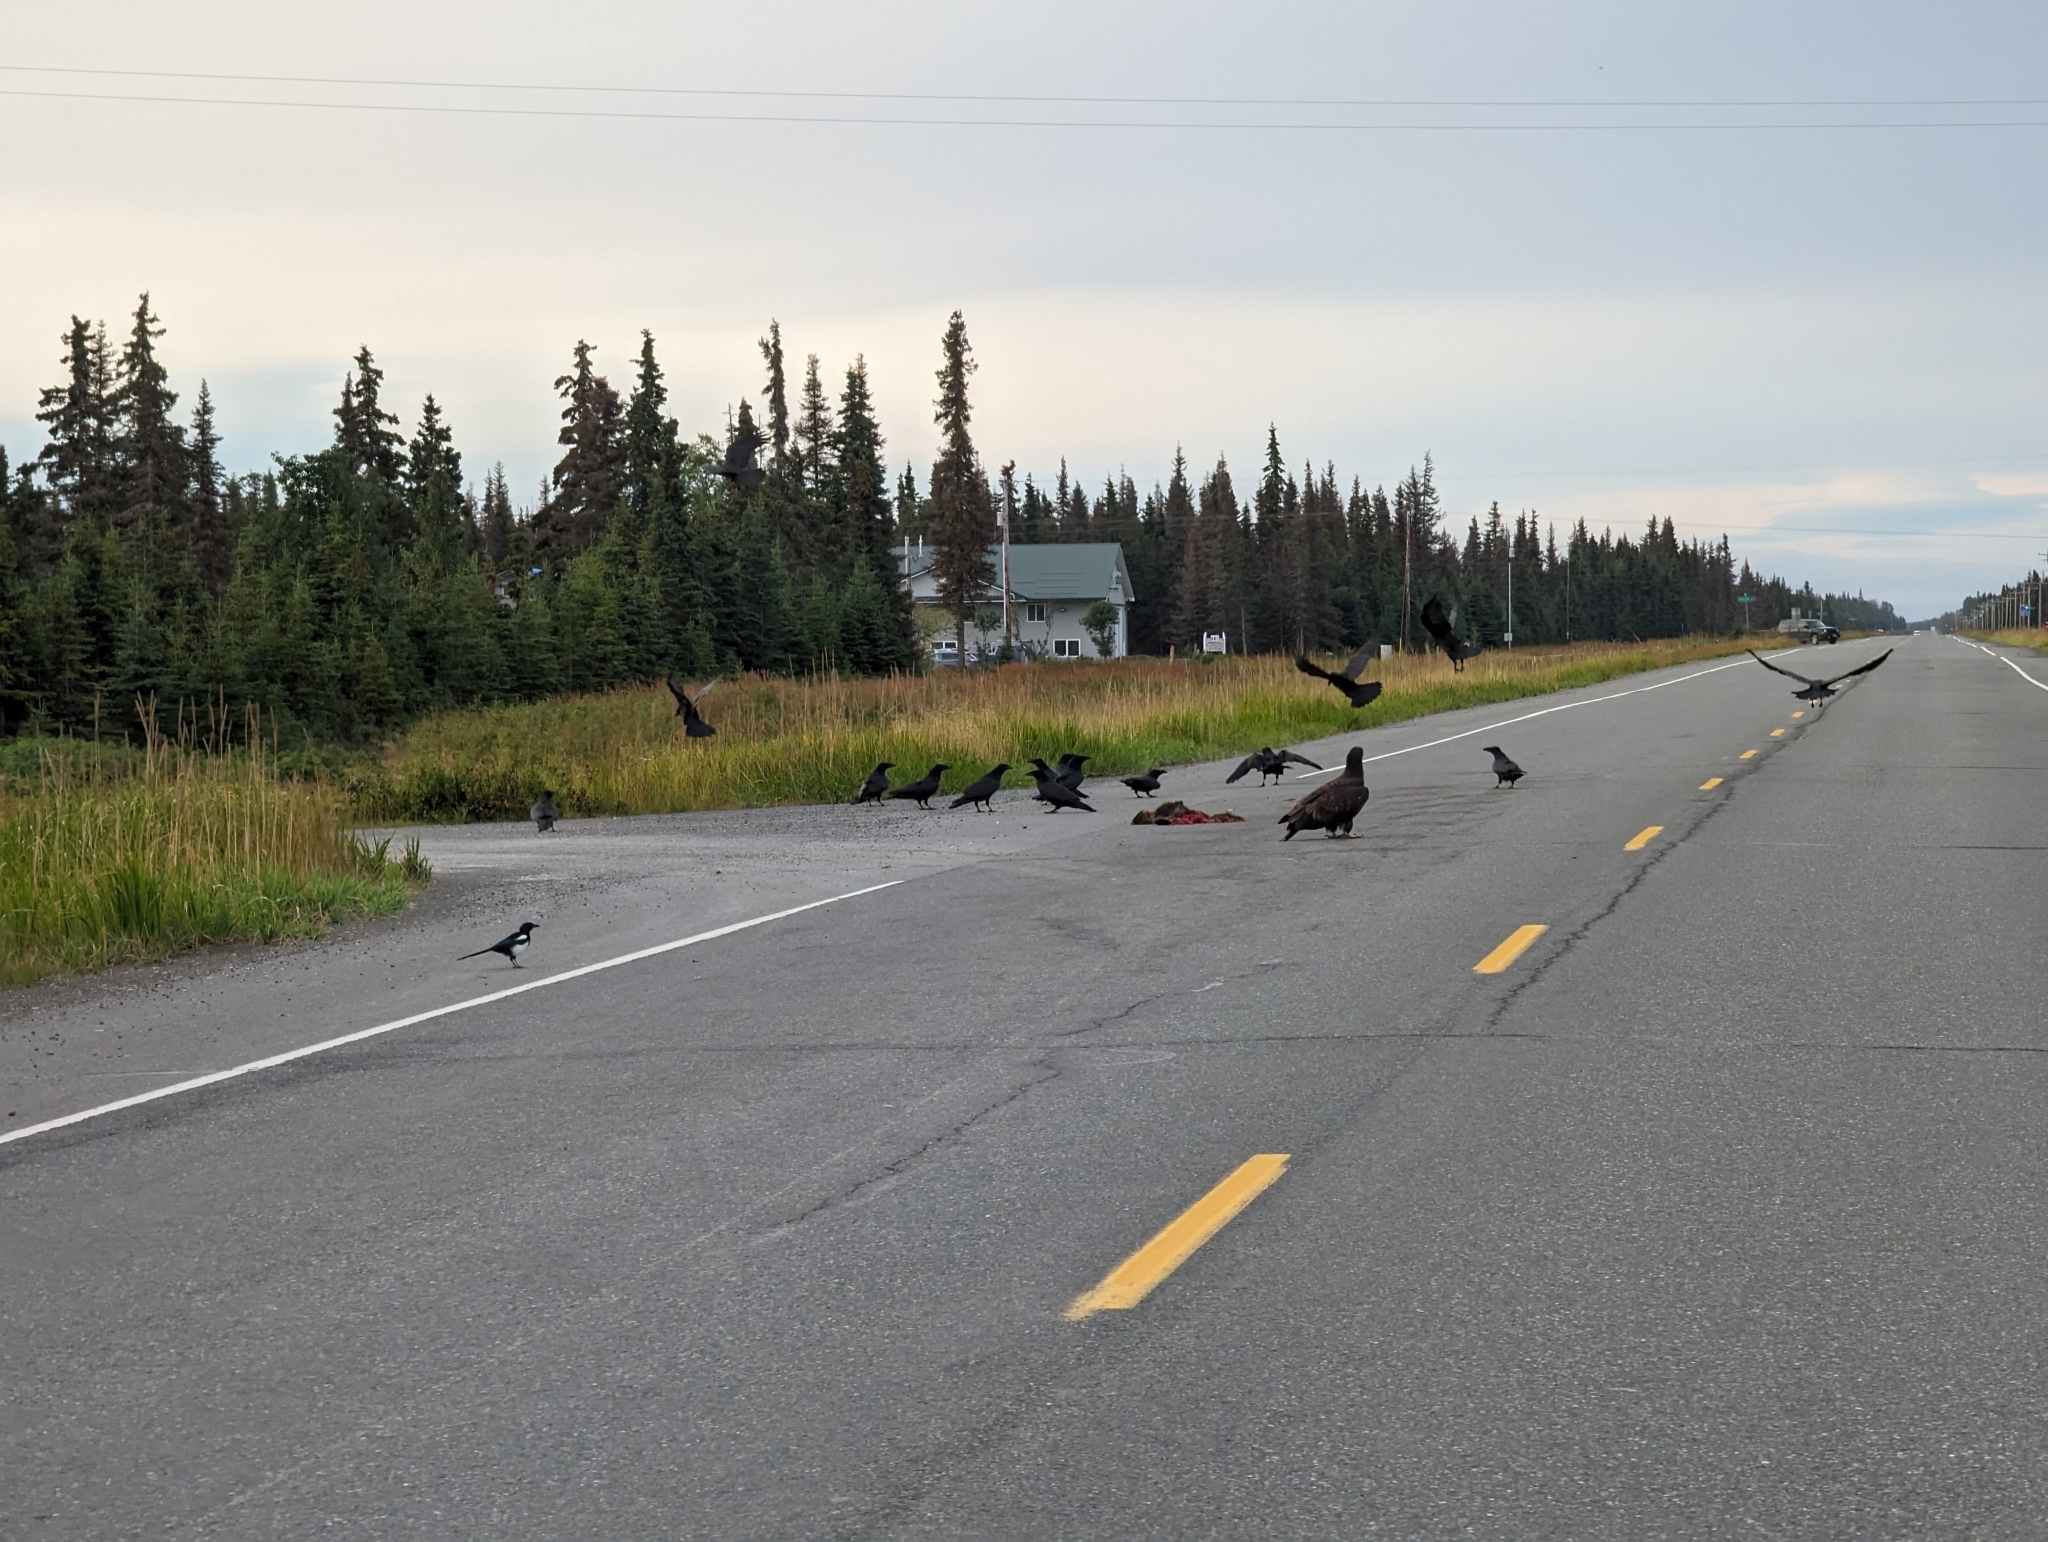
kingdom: Animalia
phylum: Chordata
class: Aves
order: Passeriformes
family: Corvidae
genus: Corvus
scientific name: Corvus corax
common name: Common raven
